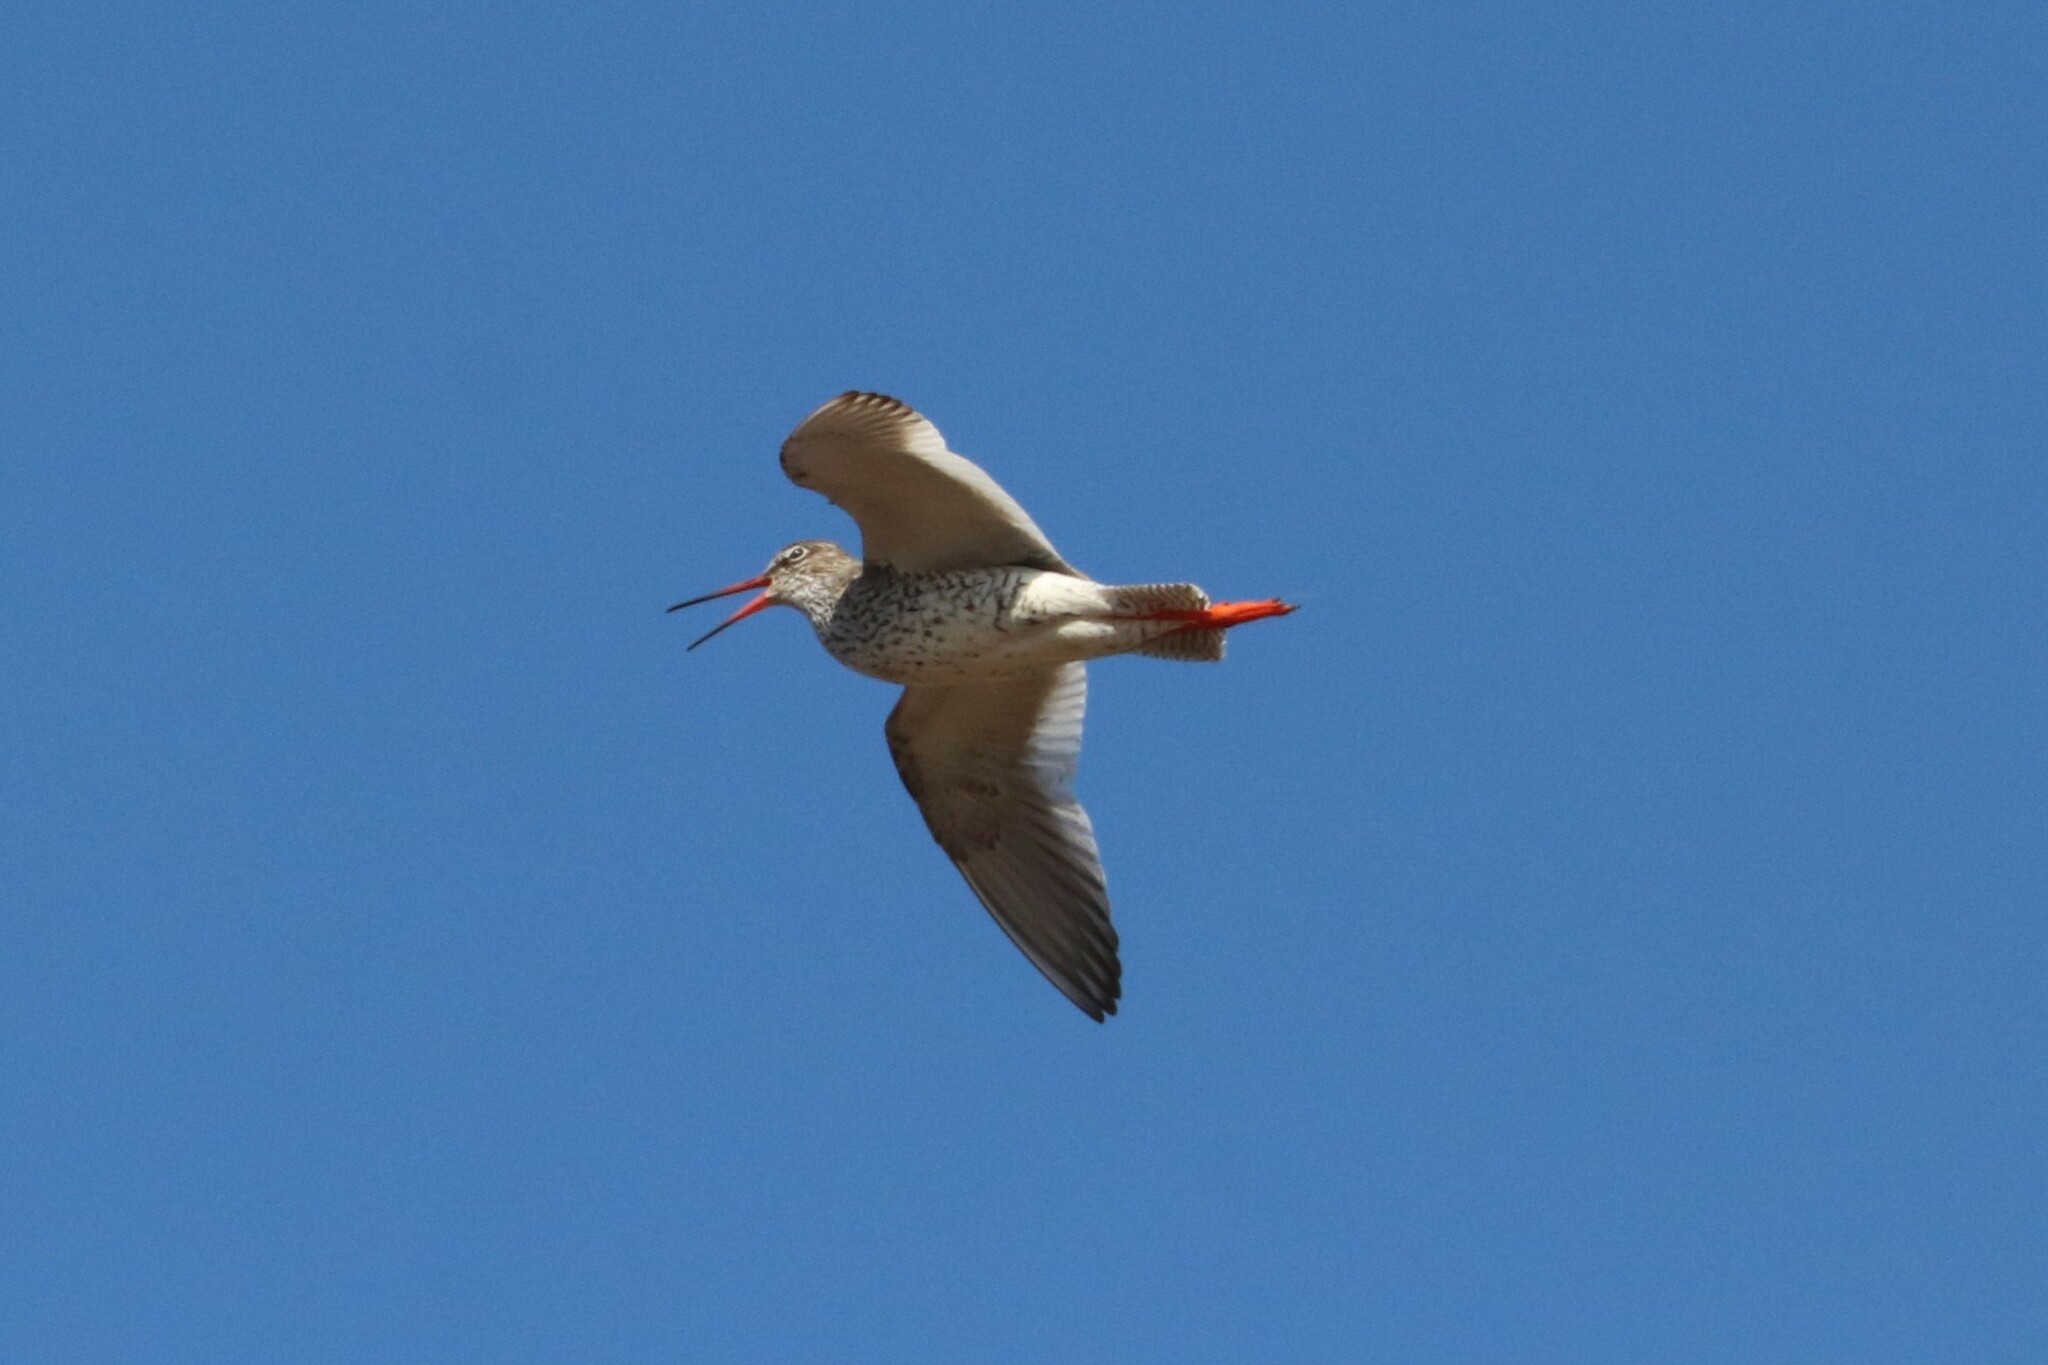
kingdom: Animalia
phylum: Chordata
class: Aves
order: Charadriiformes
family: Scolopacidae
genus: Tringa
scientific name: Tringa totanus
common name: Common redshank
